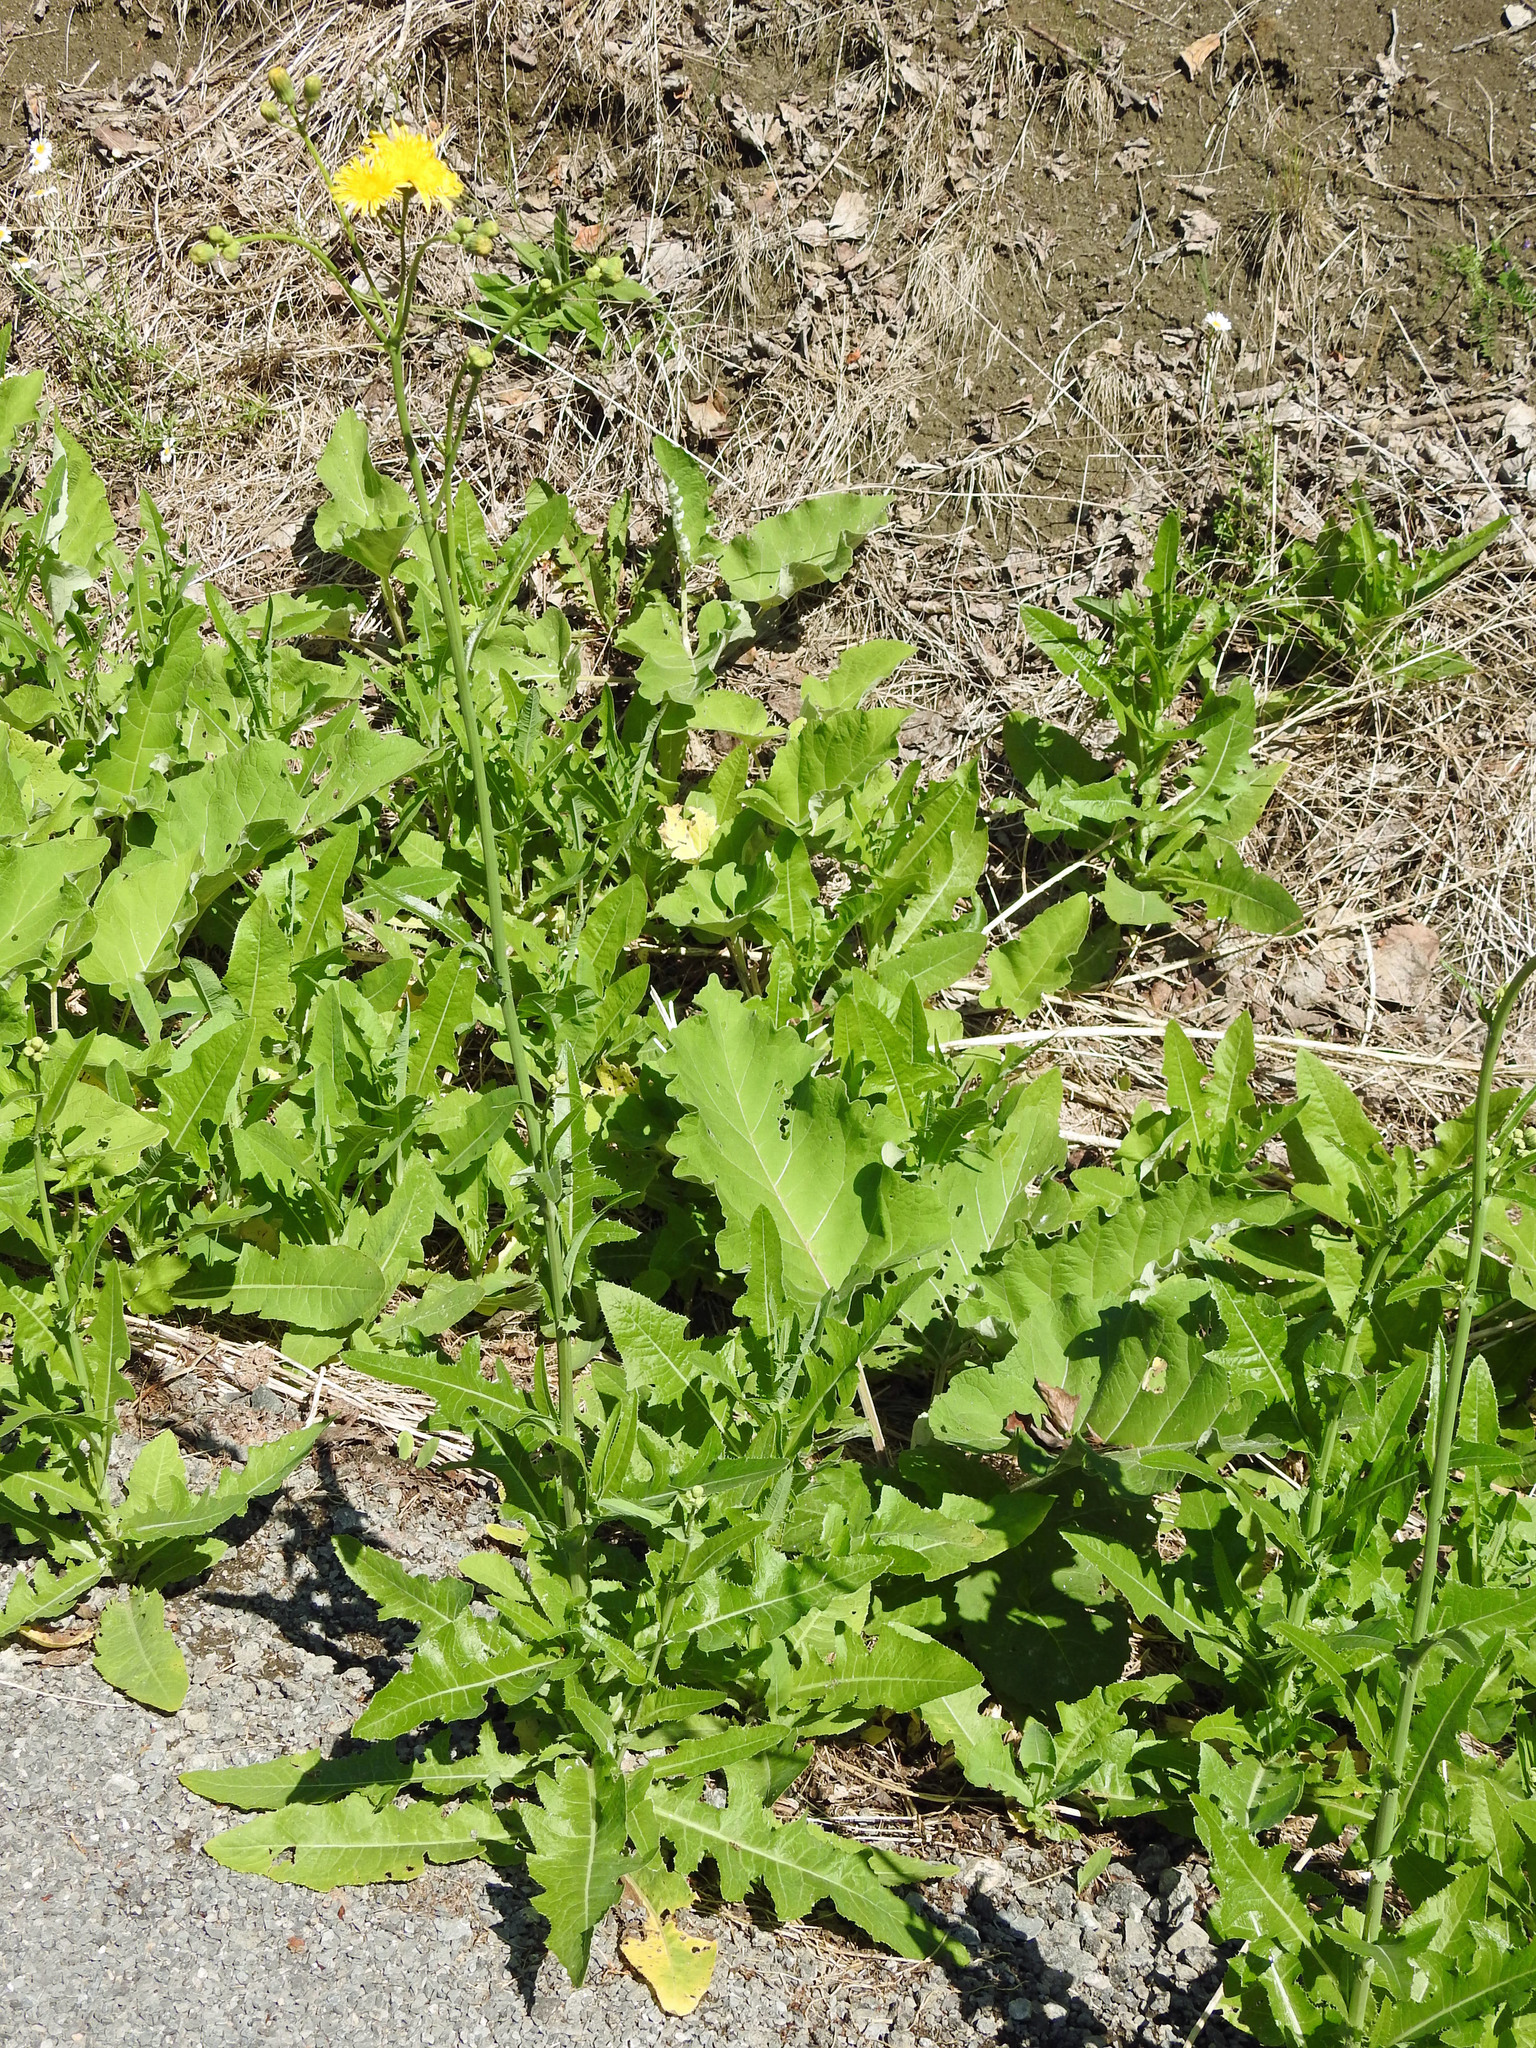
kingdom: Plantae
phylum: Tracheophyta
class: Magnoliopsida
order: Asterales
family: Asteraceae
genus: Sonchus
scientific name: Sonchus arvensis
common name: Perennial sow-thistle
